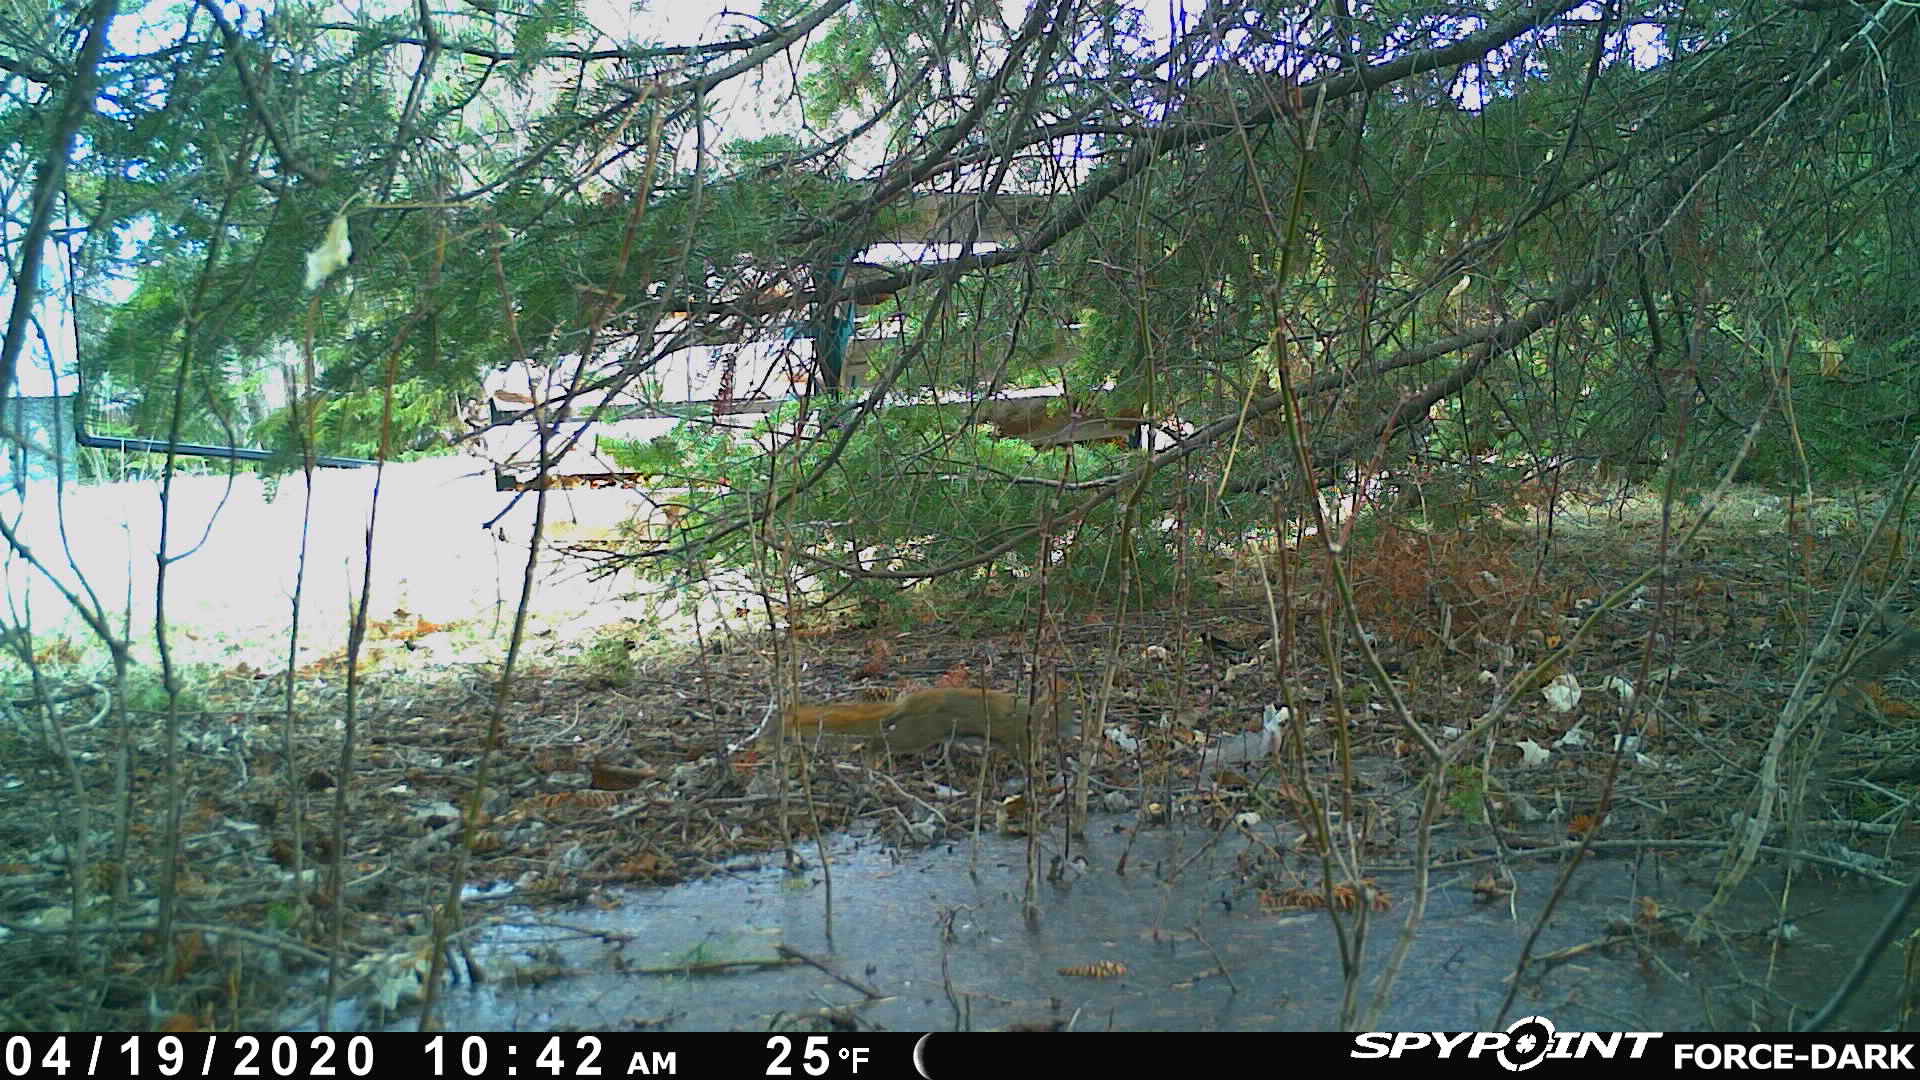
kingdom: Animalia
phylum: Chordata
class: Mammalia
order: Rodentia
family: Sciuridae
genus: Tamiasciurus
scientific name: Tamiasciurus hudsonicus
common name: Red squirrel
